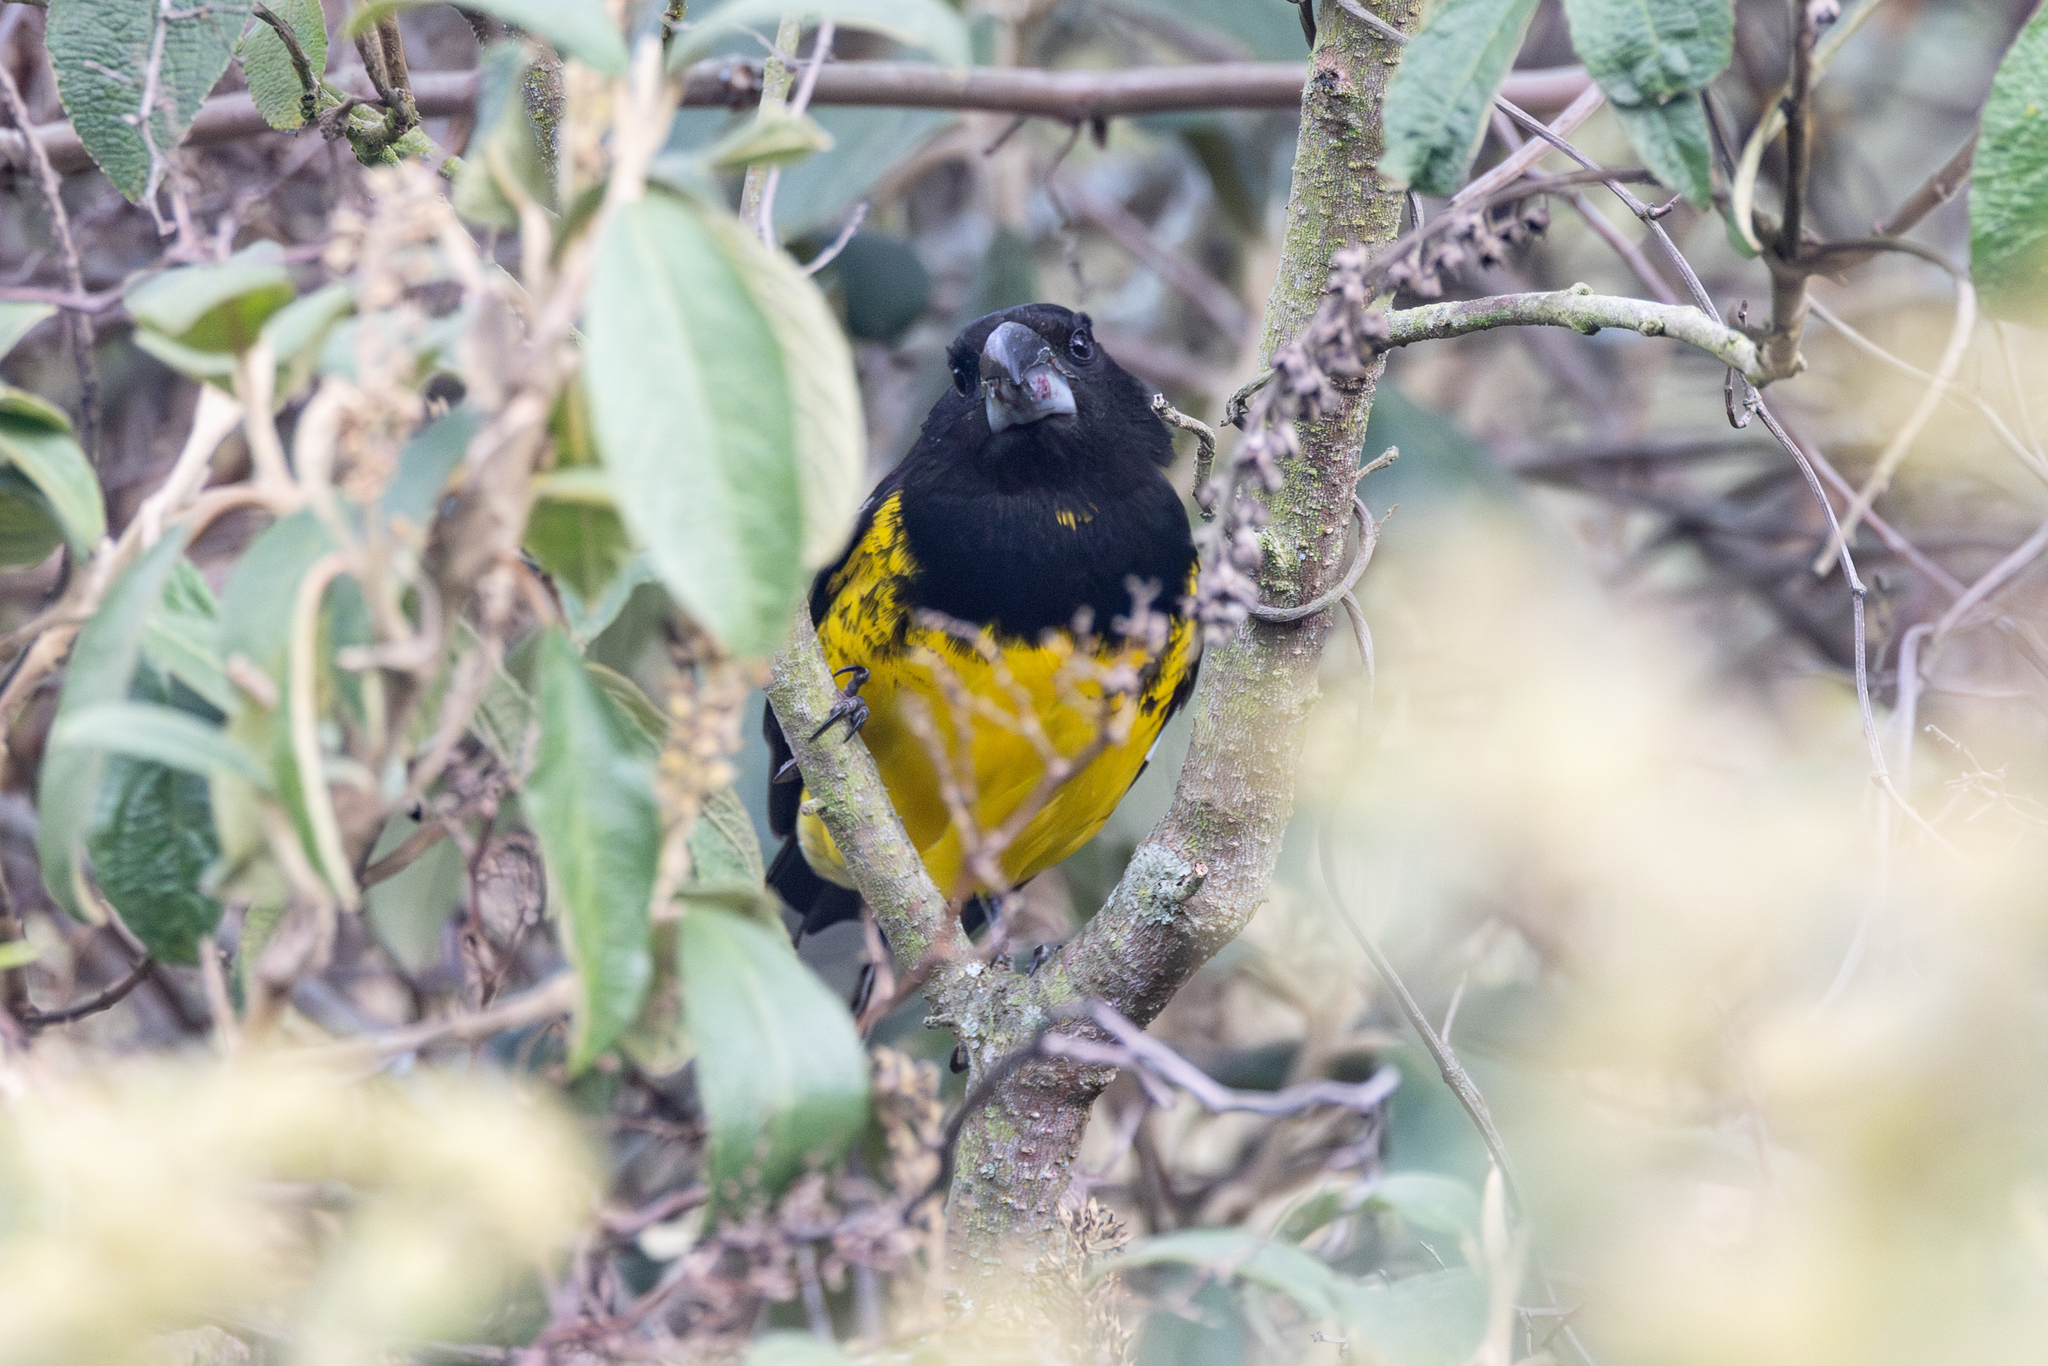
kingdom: Animalia
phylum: Chordata
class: Aves
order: Passeriformes
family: Cardinalidae
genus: Pheucticus
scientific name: Pheucticus aureoventris
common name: Black-backed grosbeak
